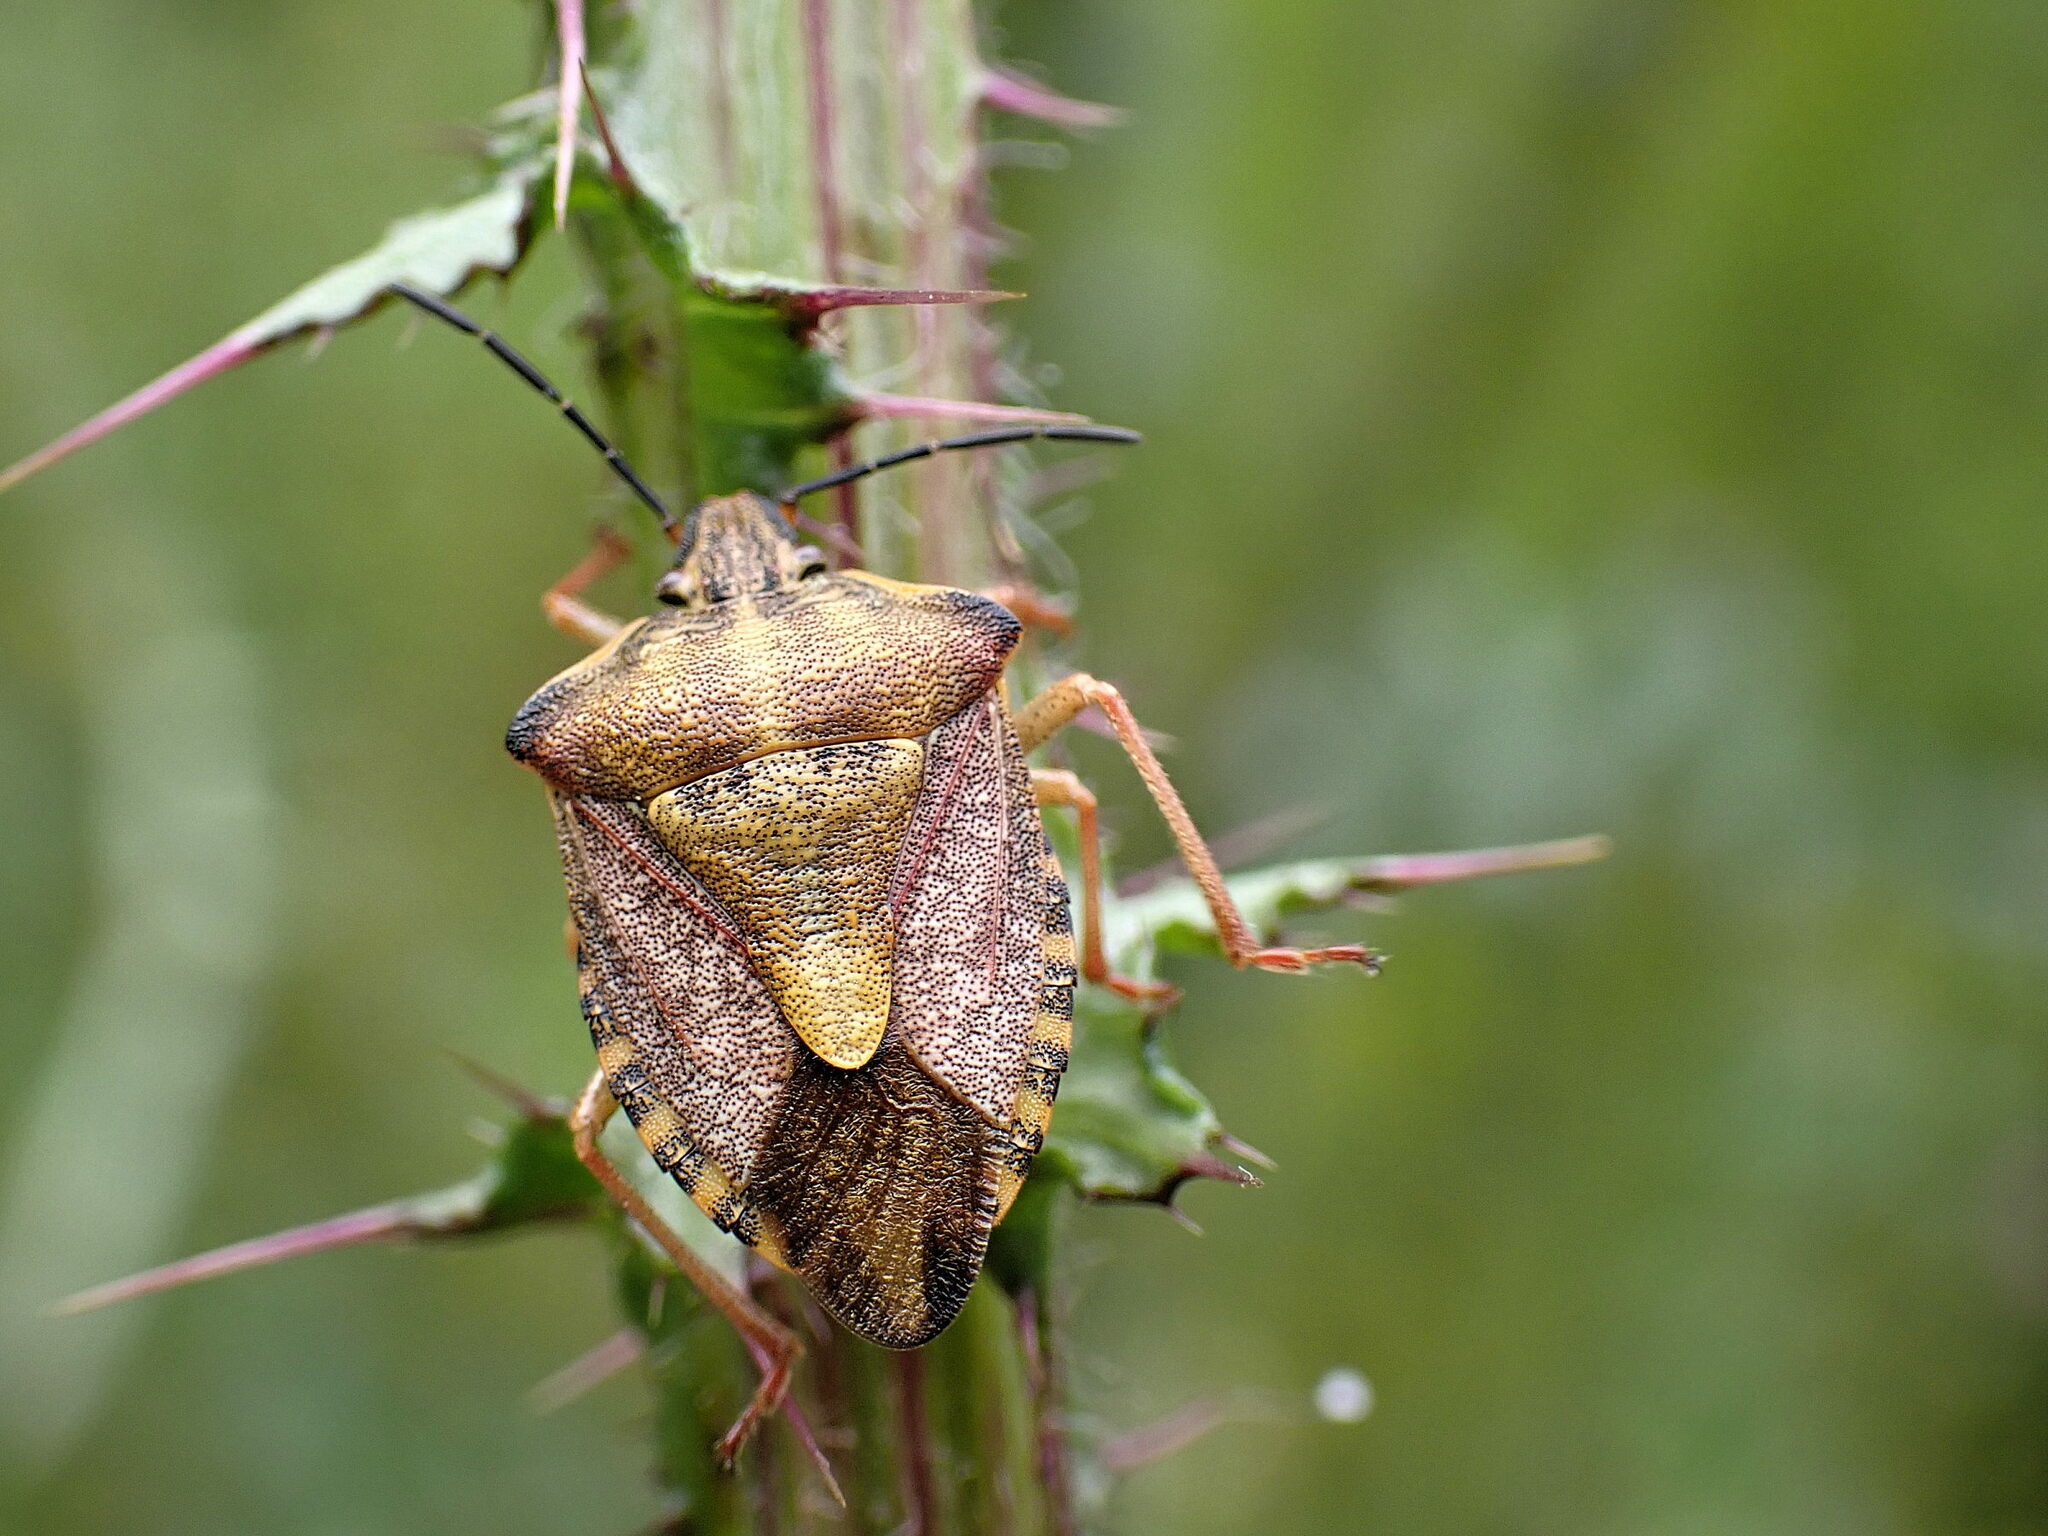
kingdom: Animalia
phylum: Arthropoda
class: Insecta
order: Hemiptera
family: Pentatomidae
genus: Carpocoris
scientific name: Carpocoris purpureipennis
